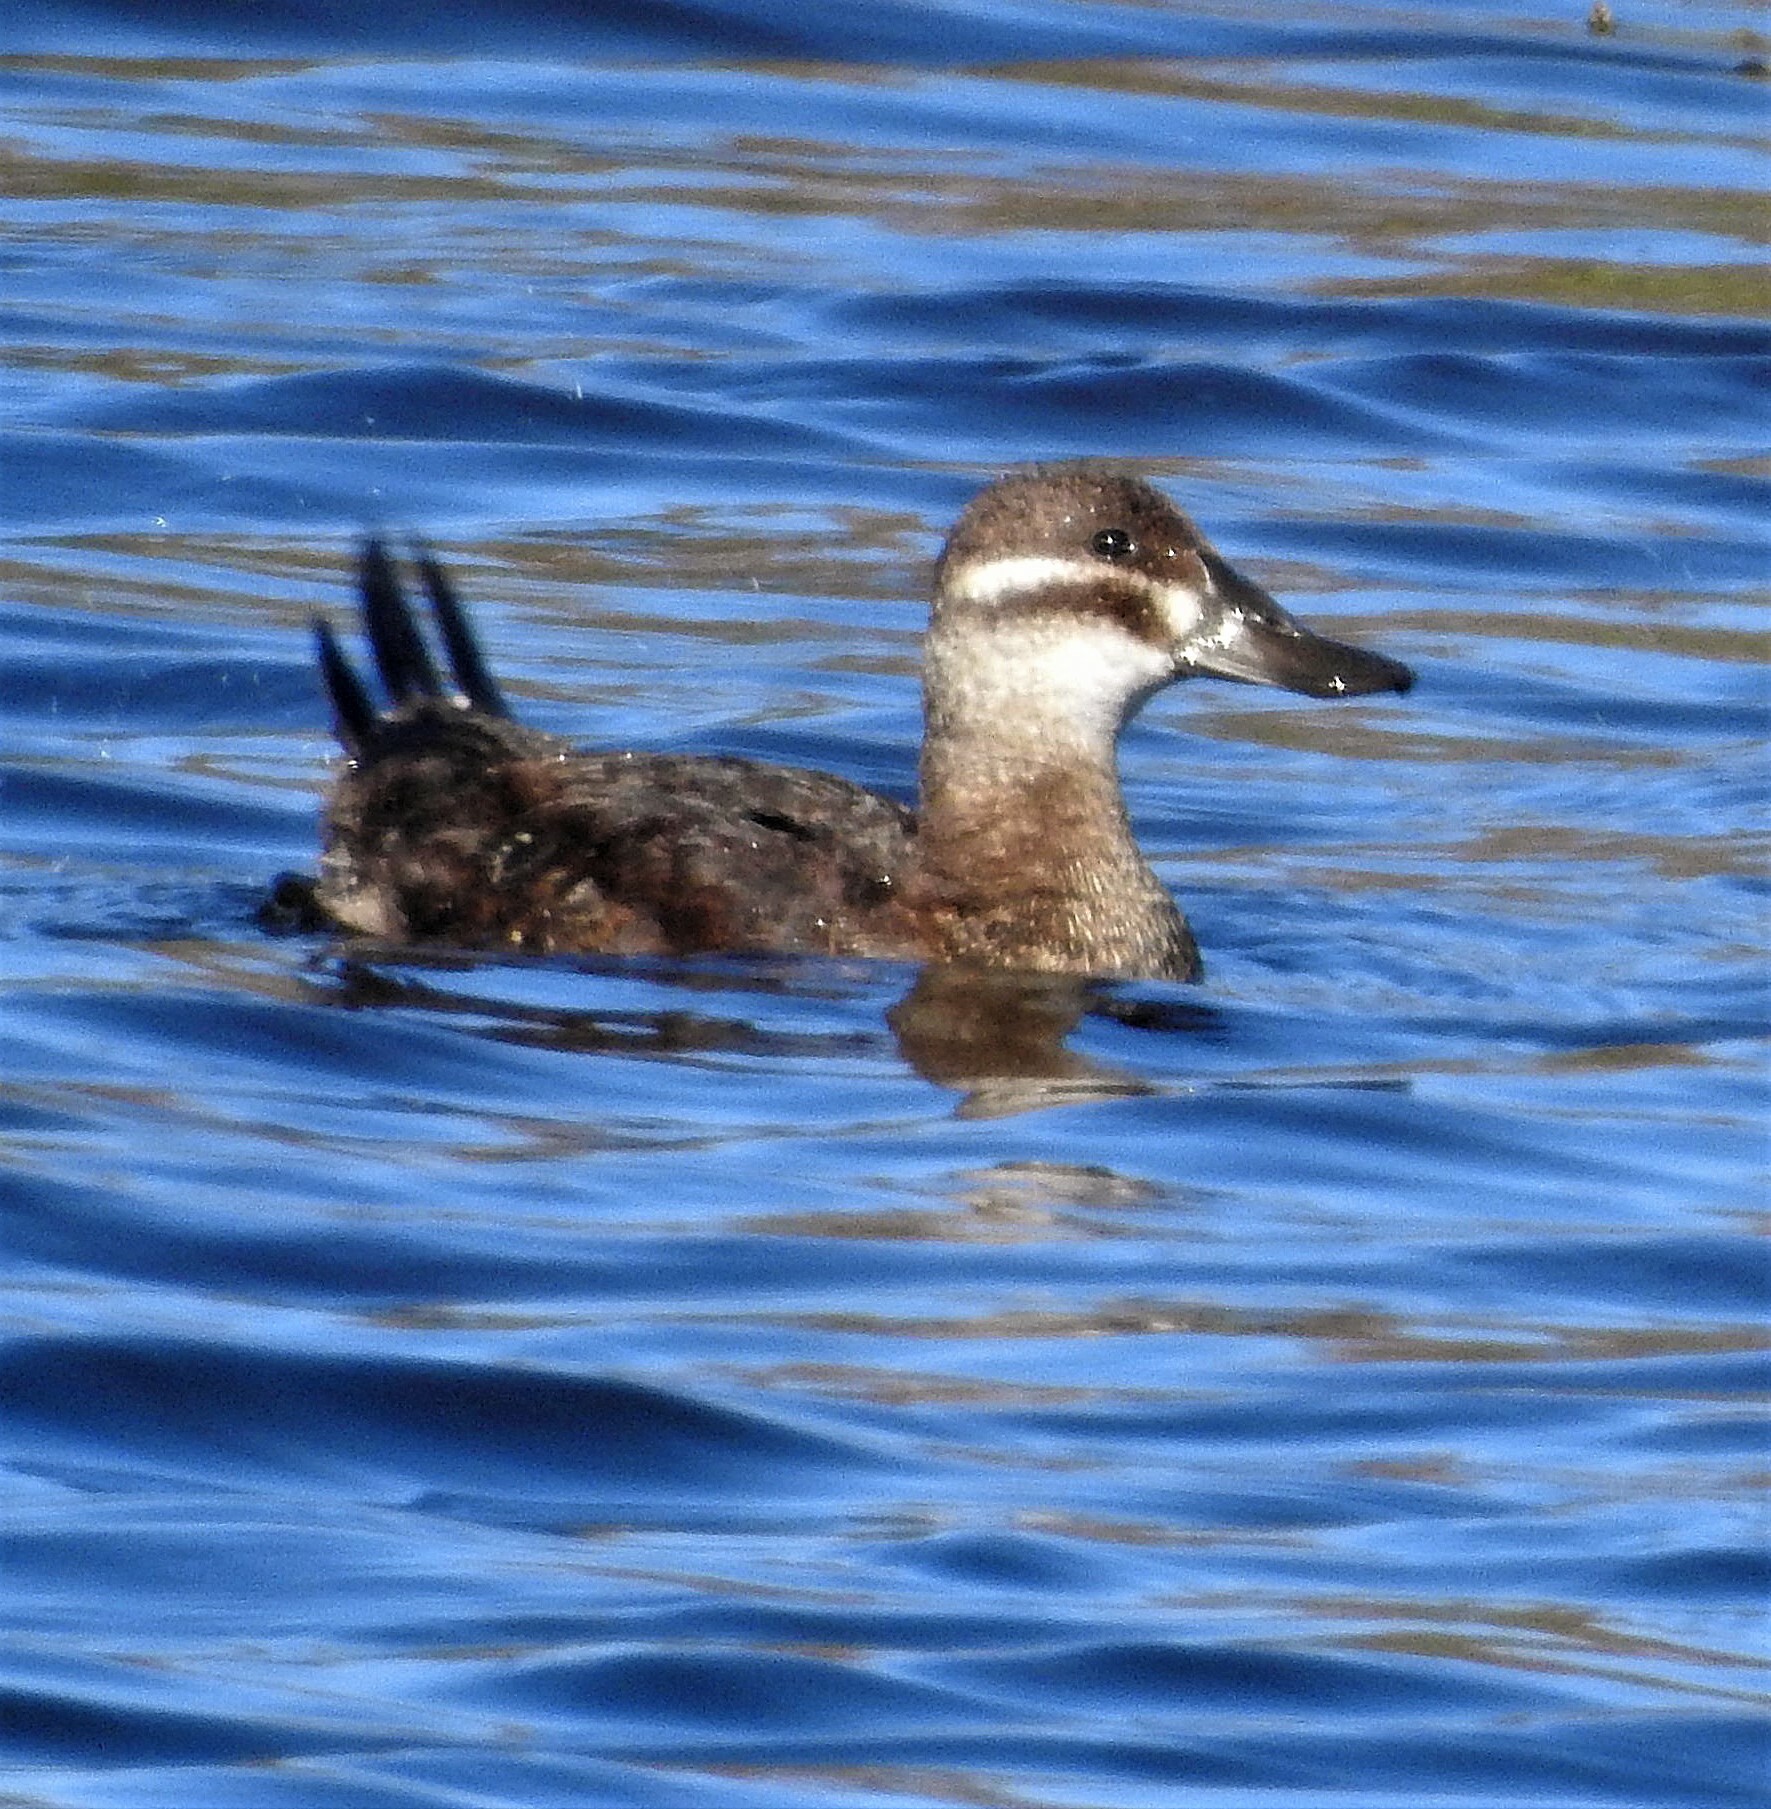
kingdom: Animalia
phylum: Chordata
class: Aves
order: Anseriformes
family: Anatidae
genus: Oxyura
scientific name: Oxyura vittata
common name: Lake duck
